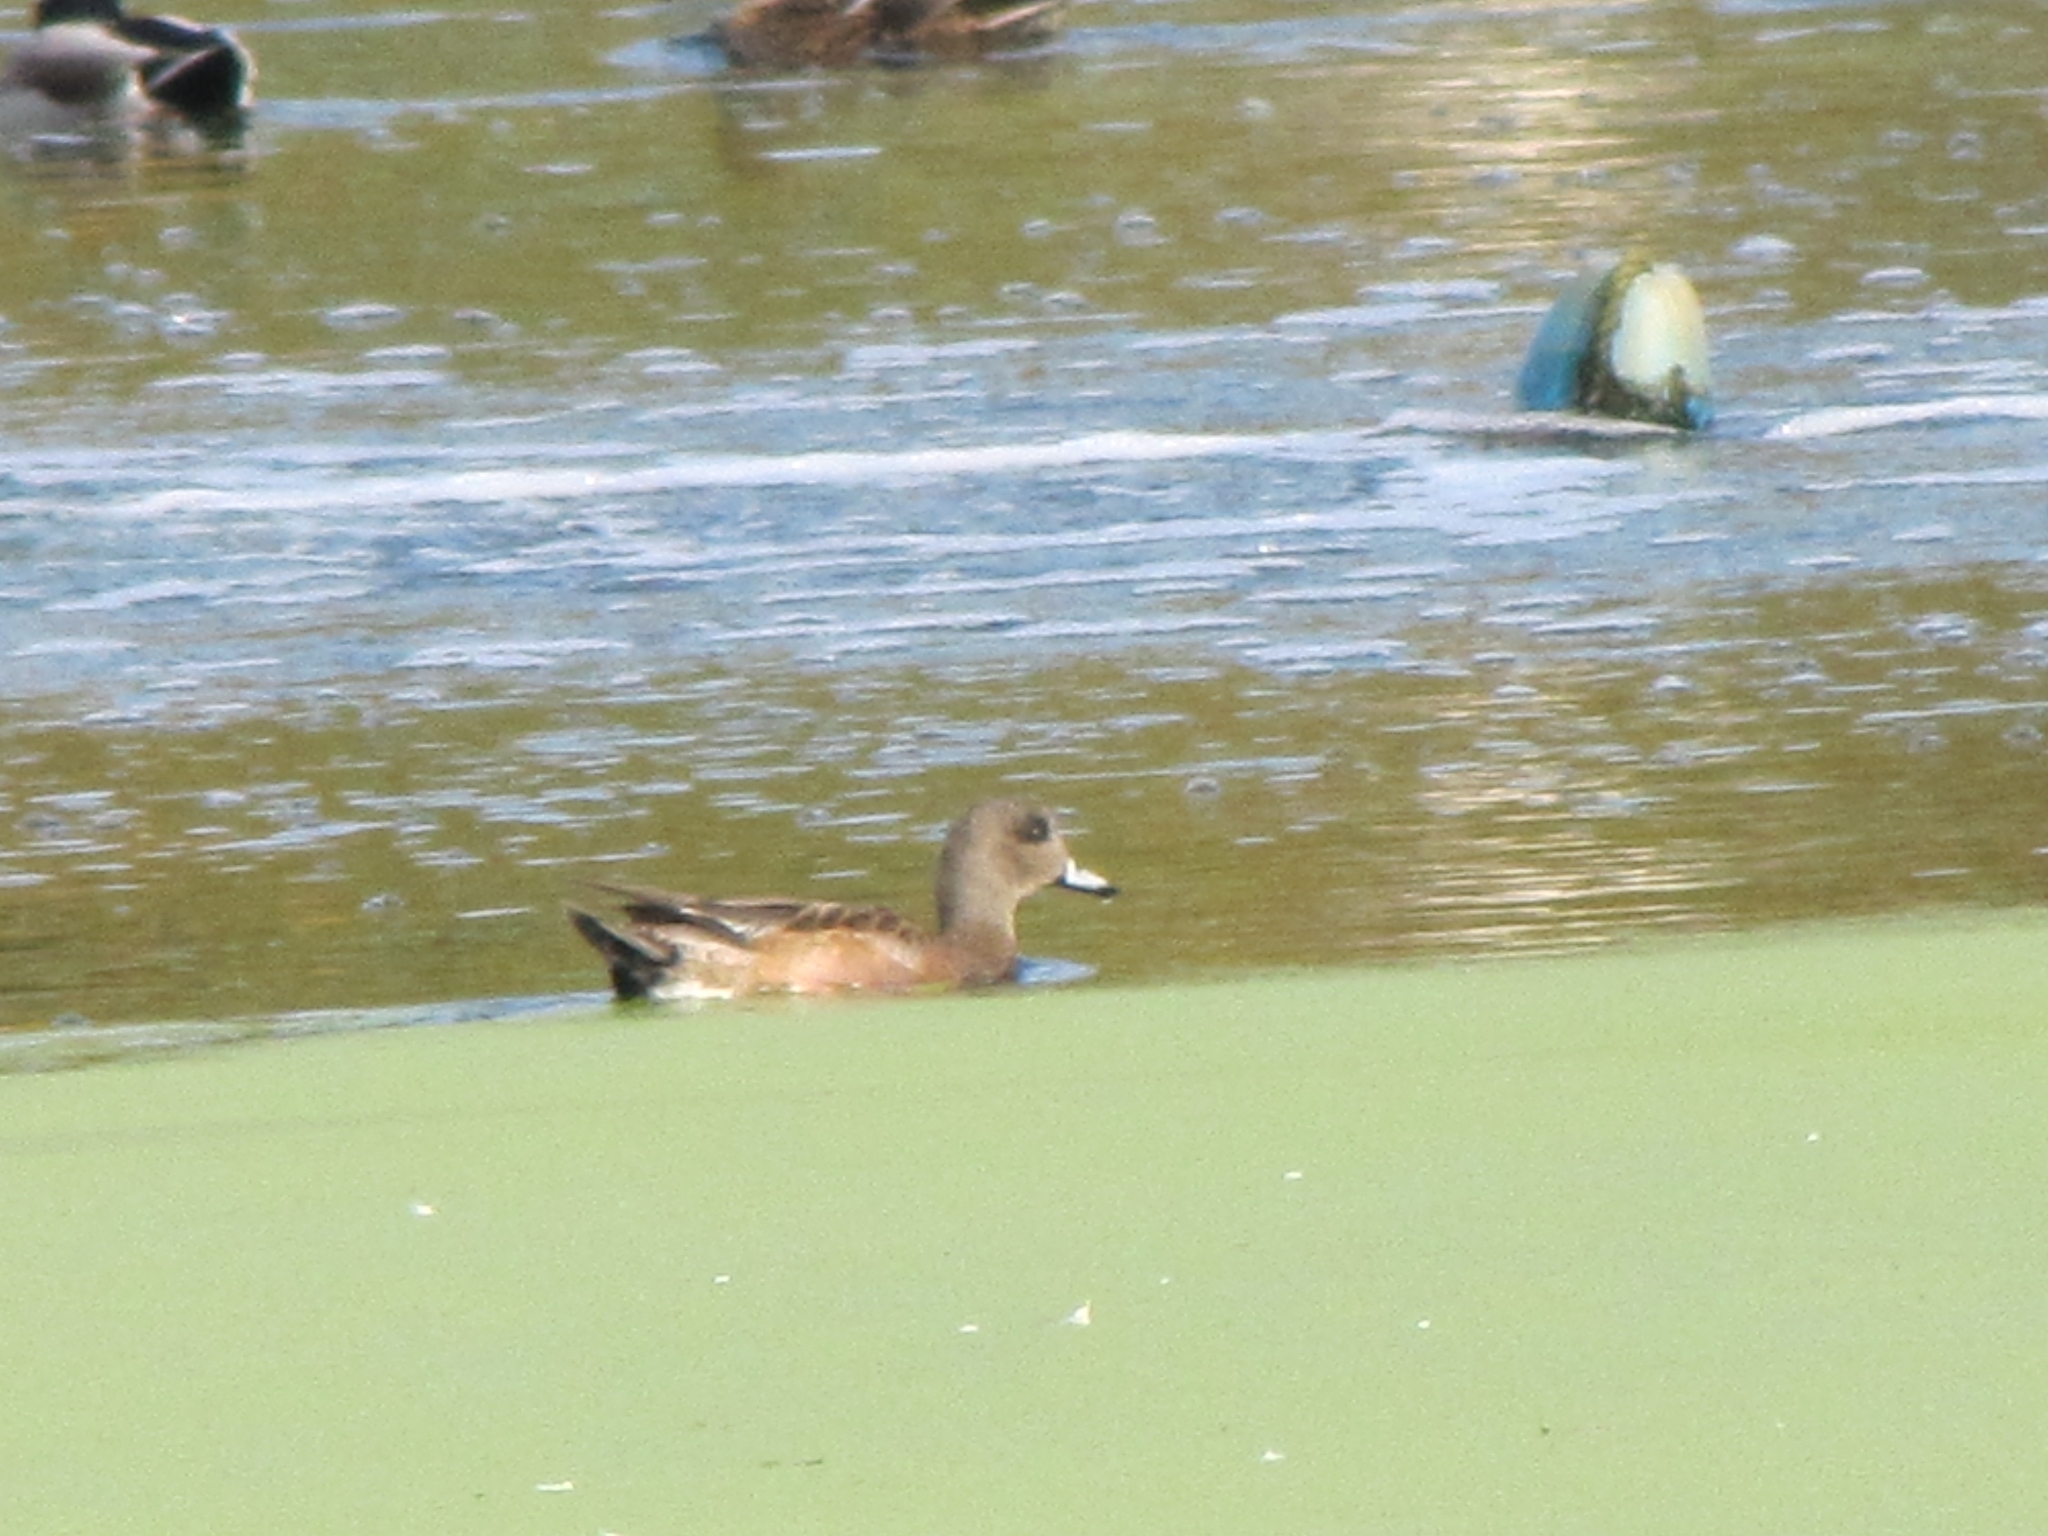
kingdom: Animalia
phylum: Chordata
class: Aves
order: Anseriformes
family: Anatidae
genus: Mareca
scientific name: Mareca americana
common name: American wigeon
